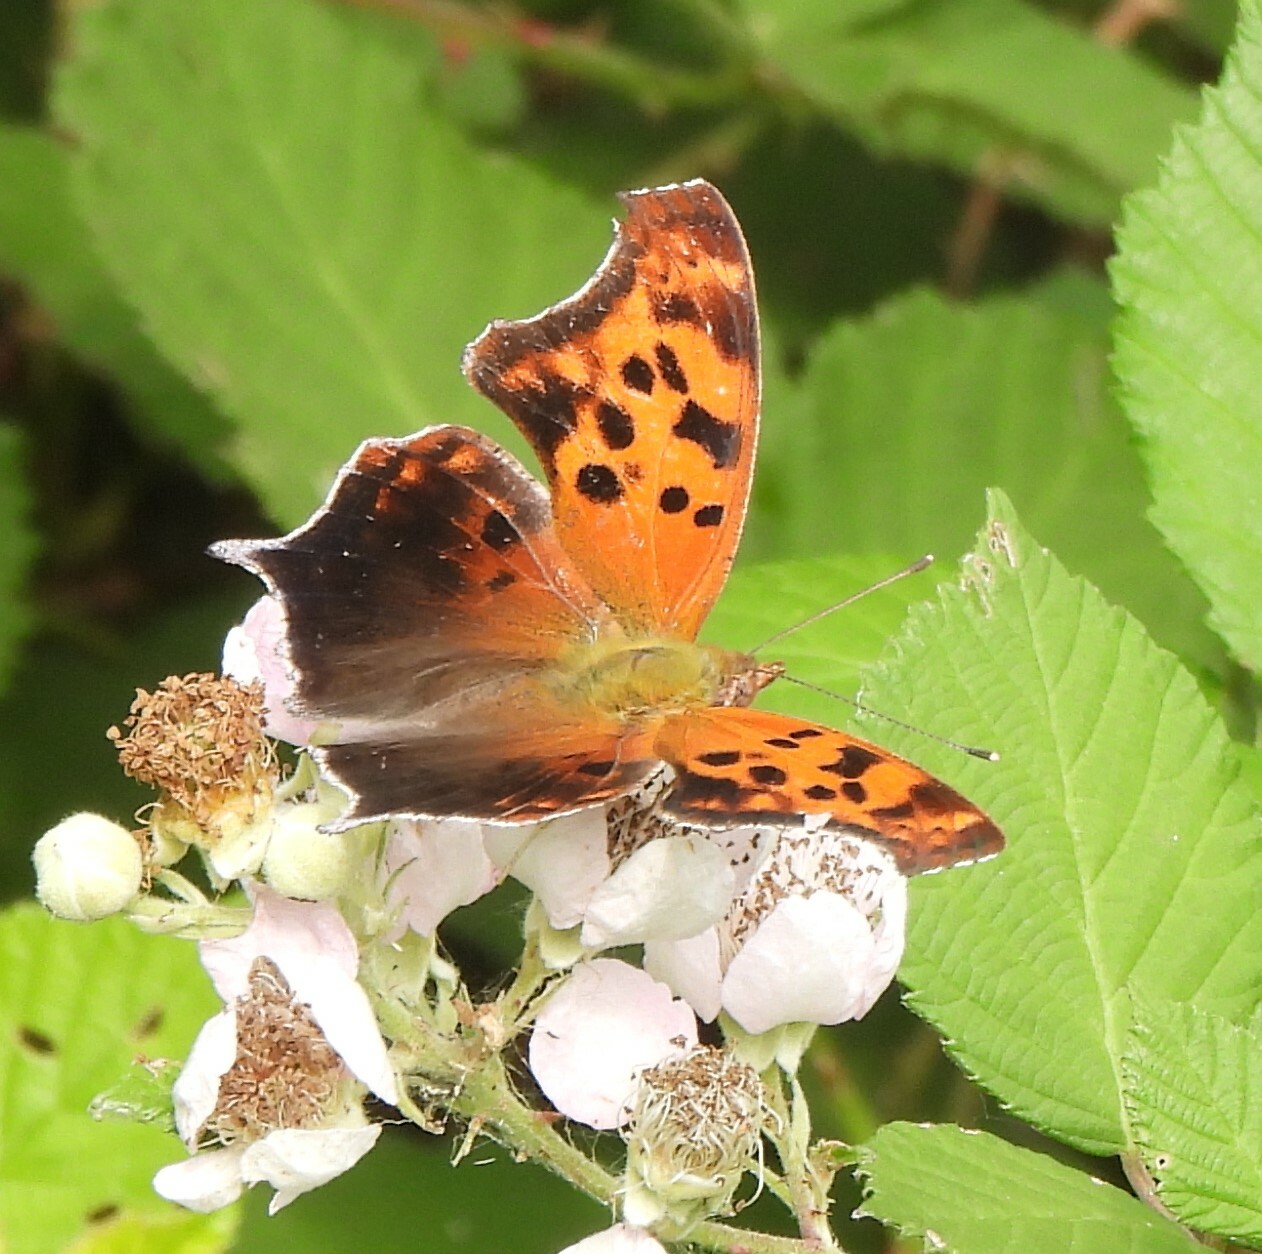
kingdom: Animalia
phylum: Arthropoda
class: Insecta
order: Lepidoptera
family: Nymphalidae
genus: Polygonia
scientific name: Polygonia interrogationis
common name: Question mark
